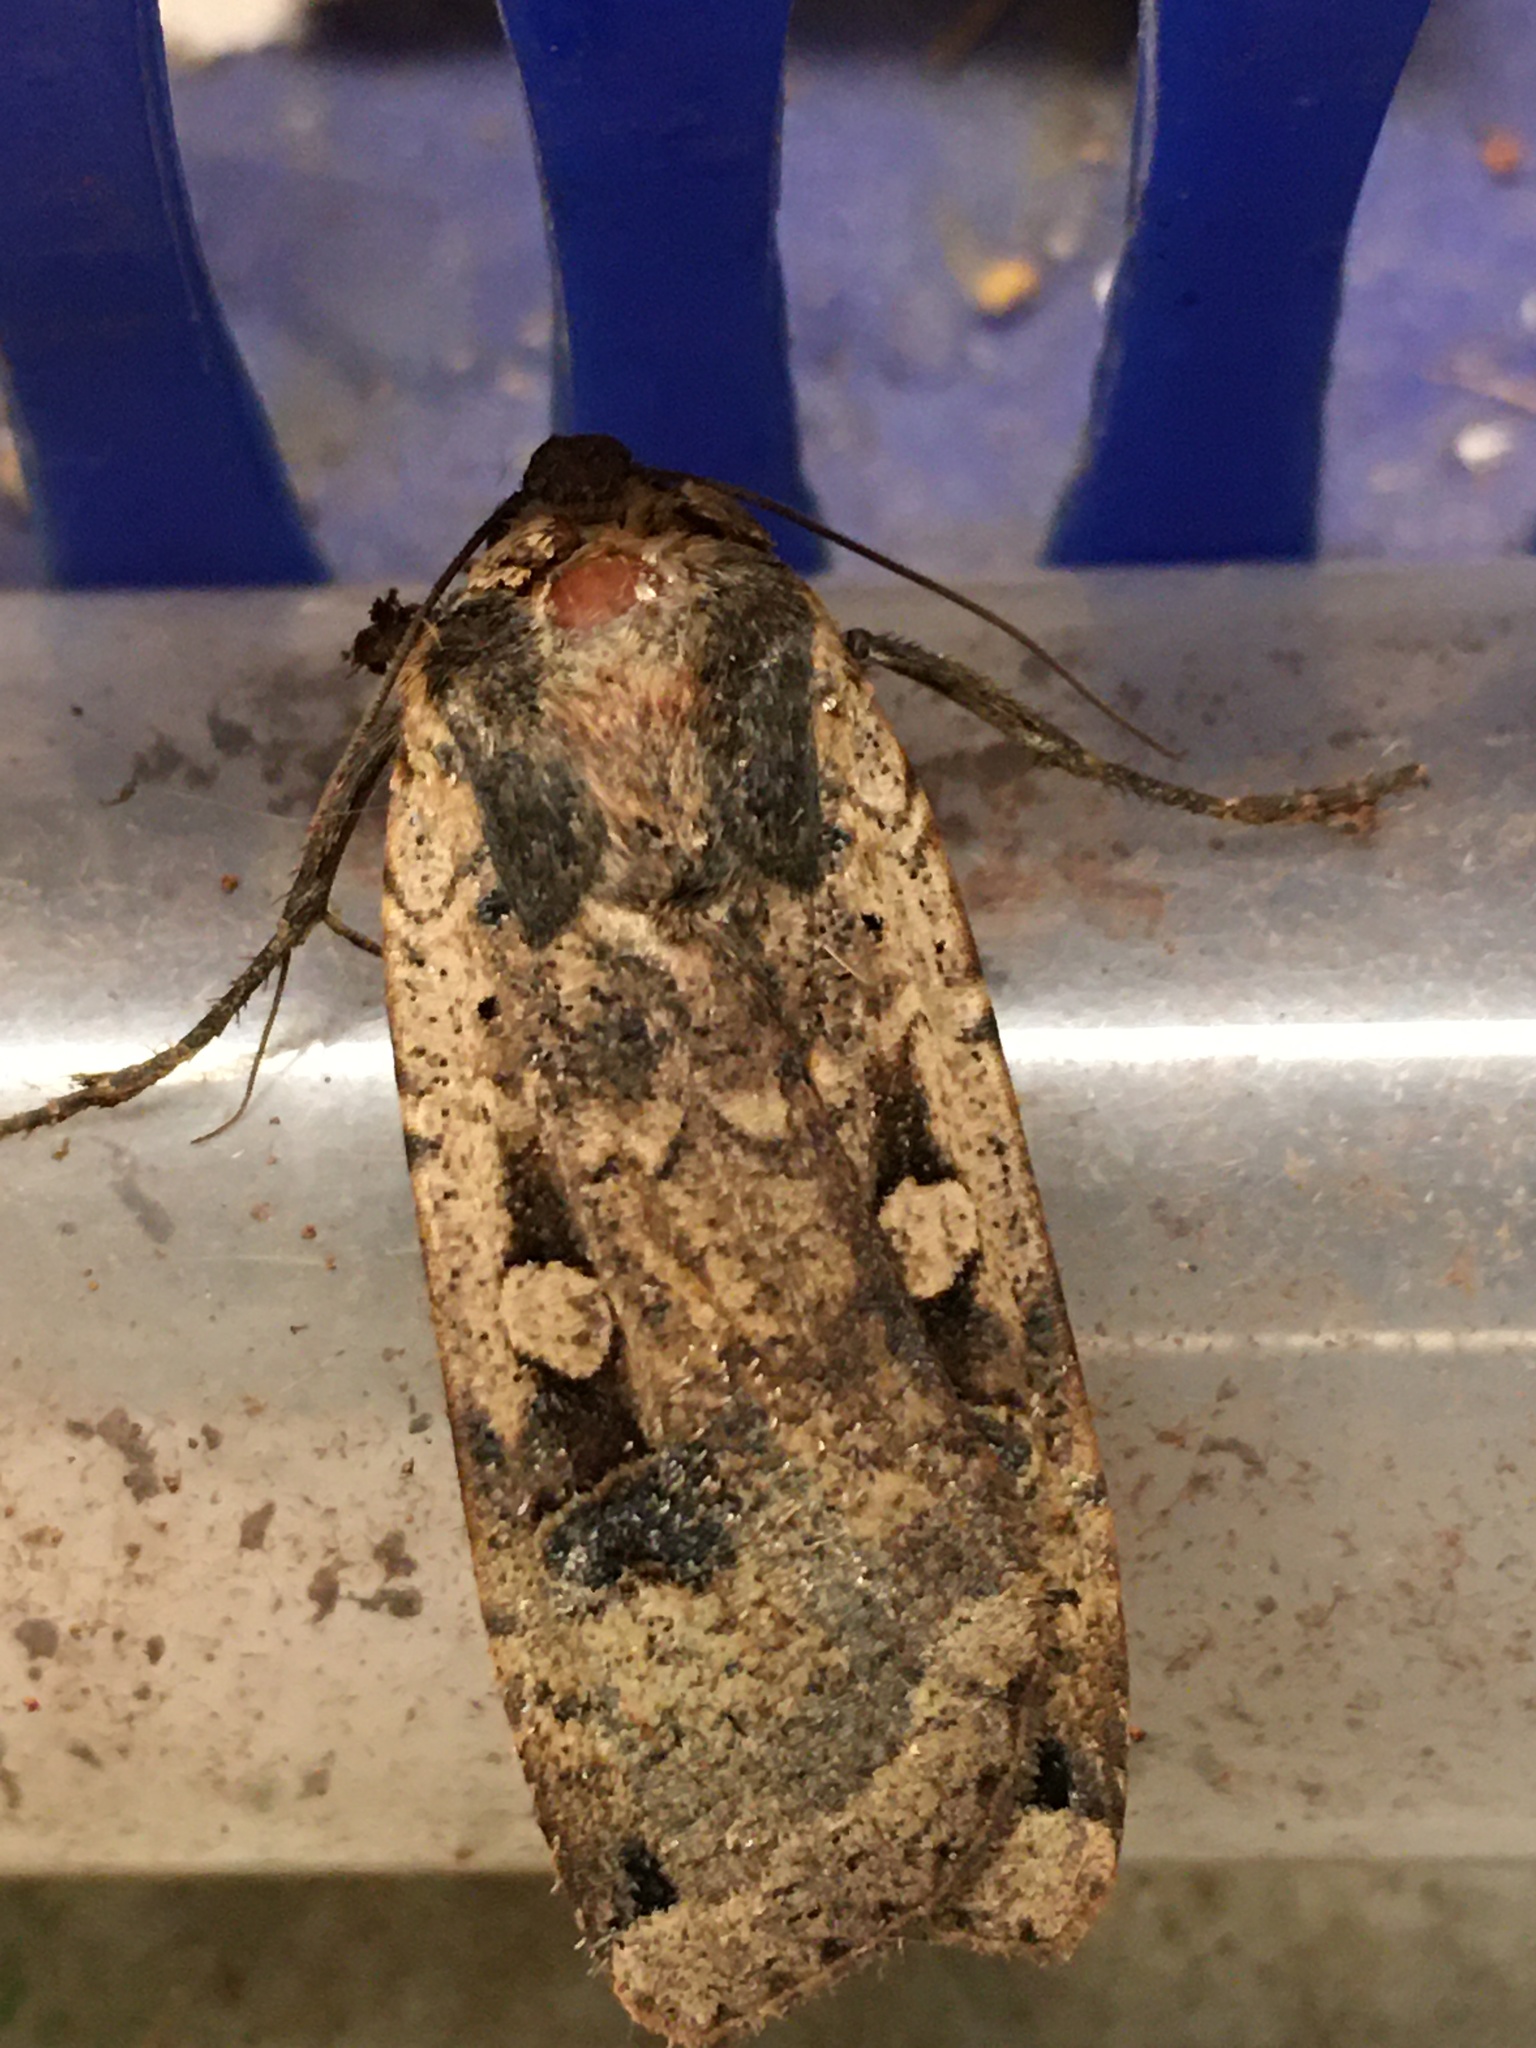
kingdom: Animalia
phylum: Arthropoda
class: Insecta
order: Lepidoptera
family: Noctuidae
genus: Noctua
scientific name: Noctua pronuba
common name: Large yellow underwing
